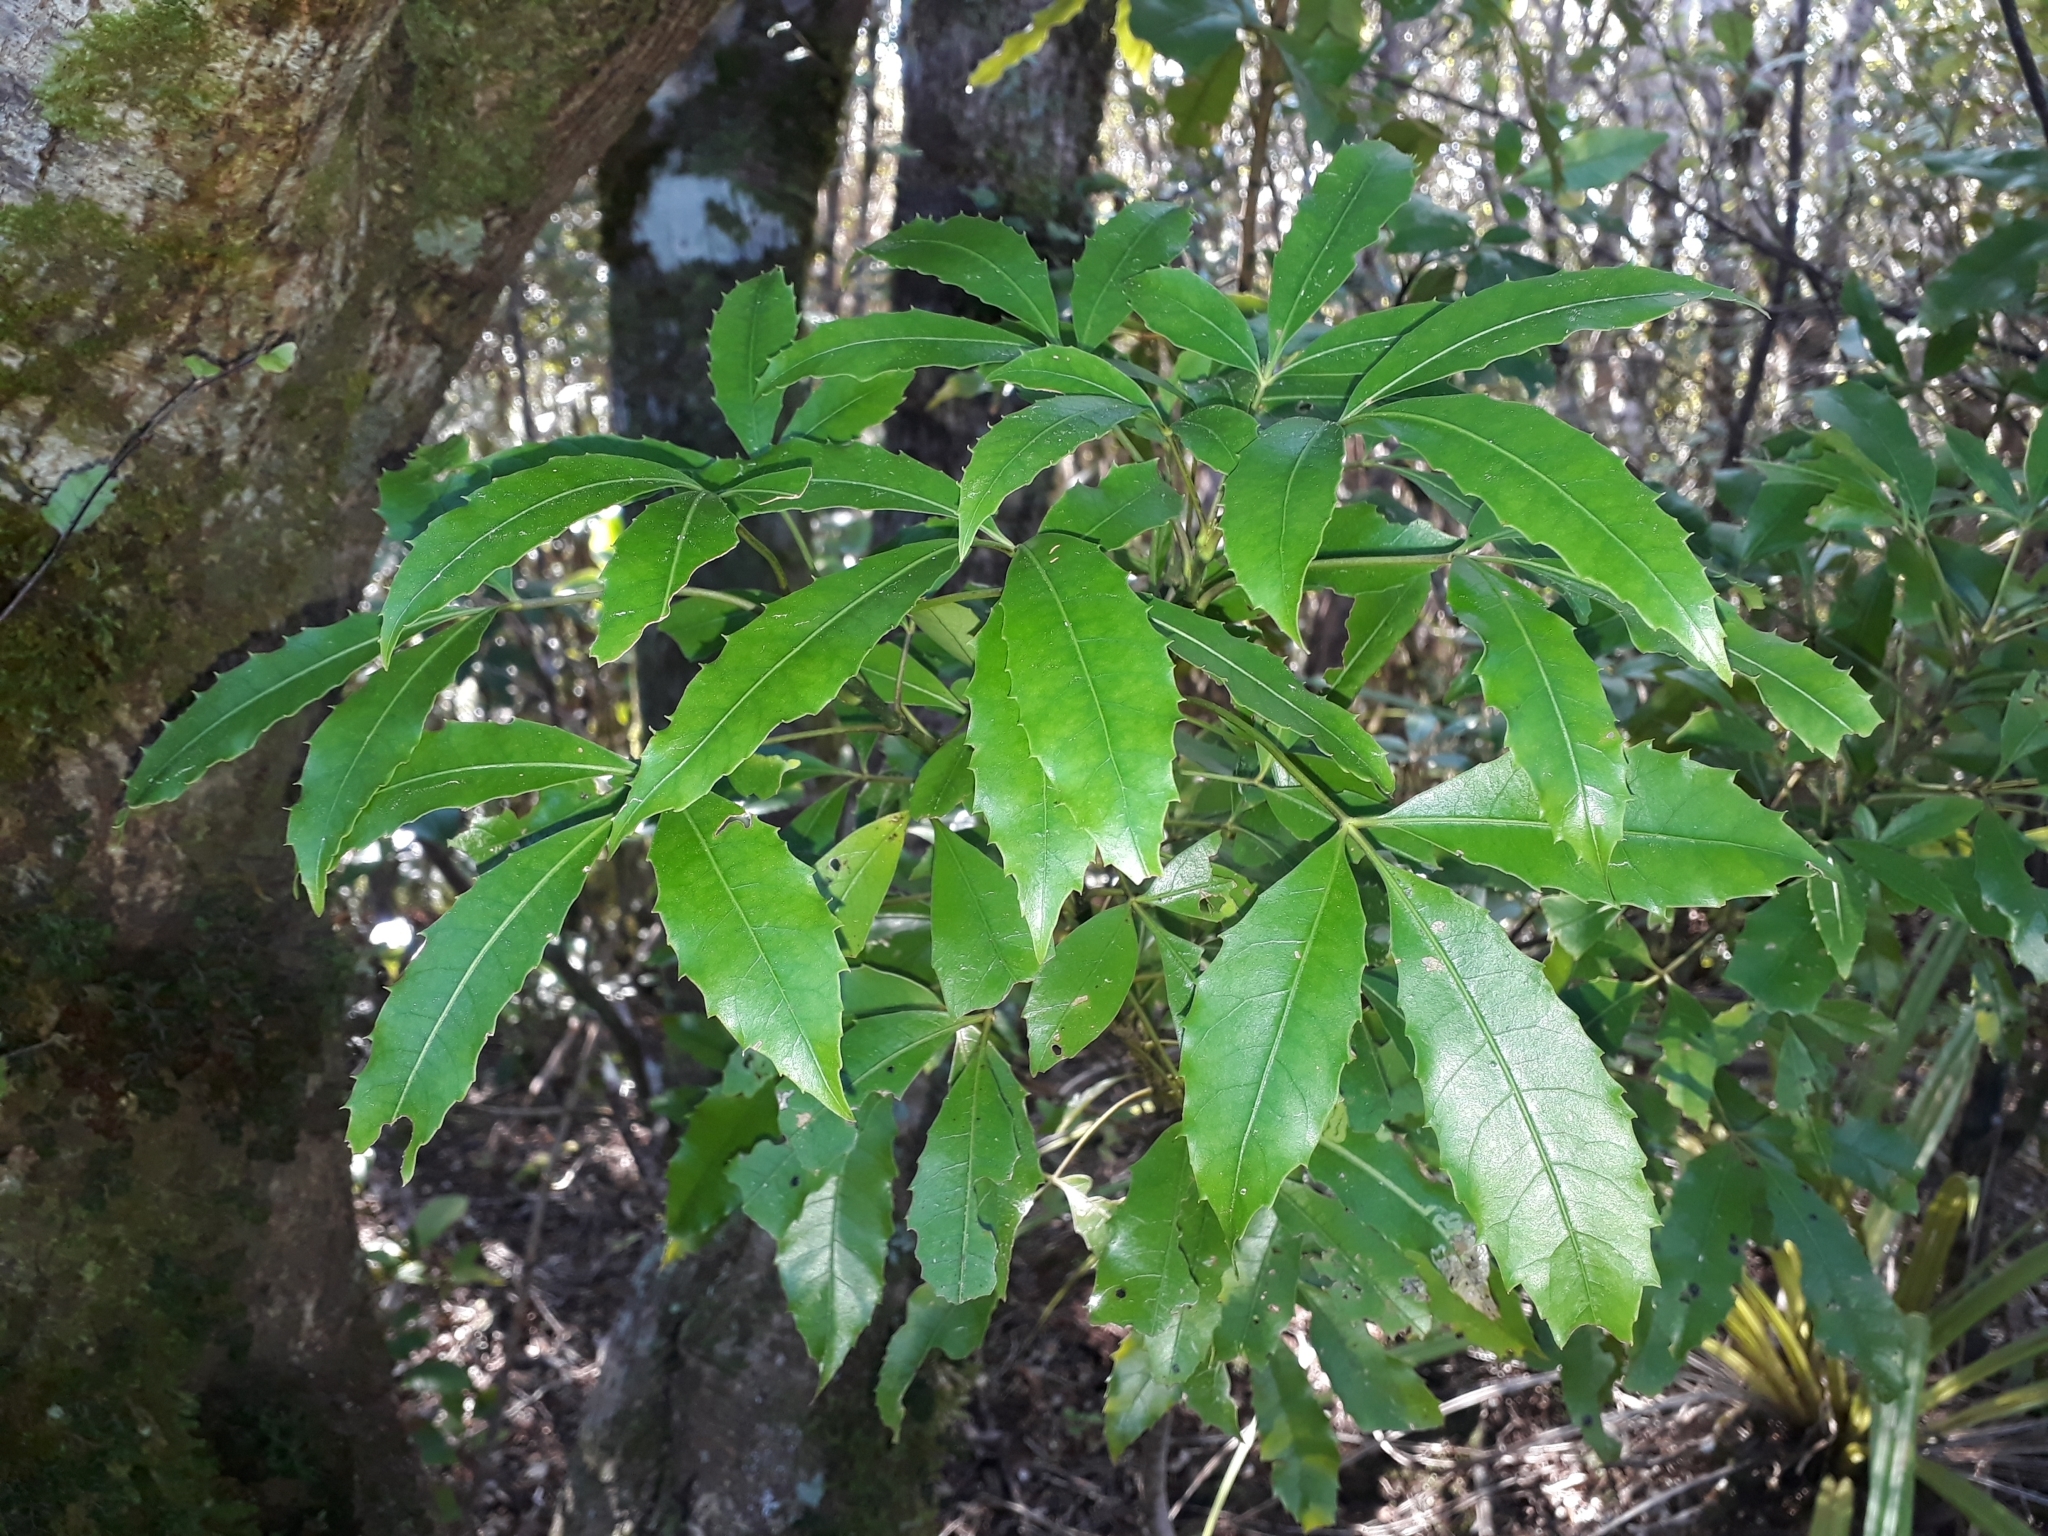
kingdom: Plantae
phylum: Tracheophyta
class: Magnoliopsida
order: Apiales
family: Araliaceae
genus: Raukaua
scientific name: Raukaua simplex
